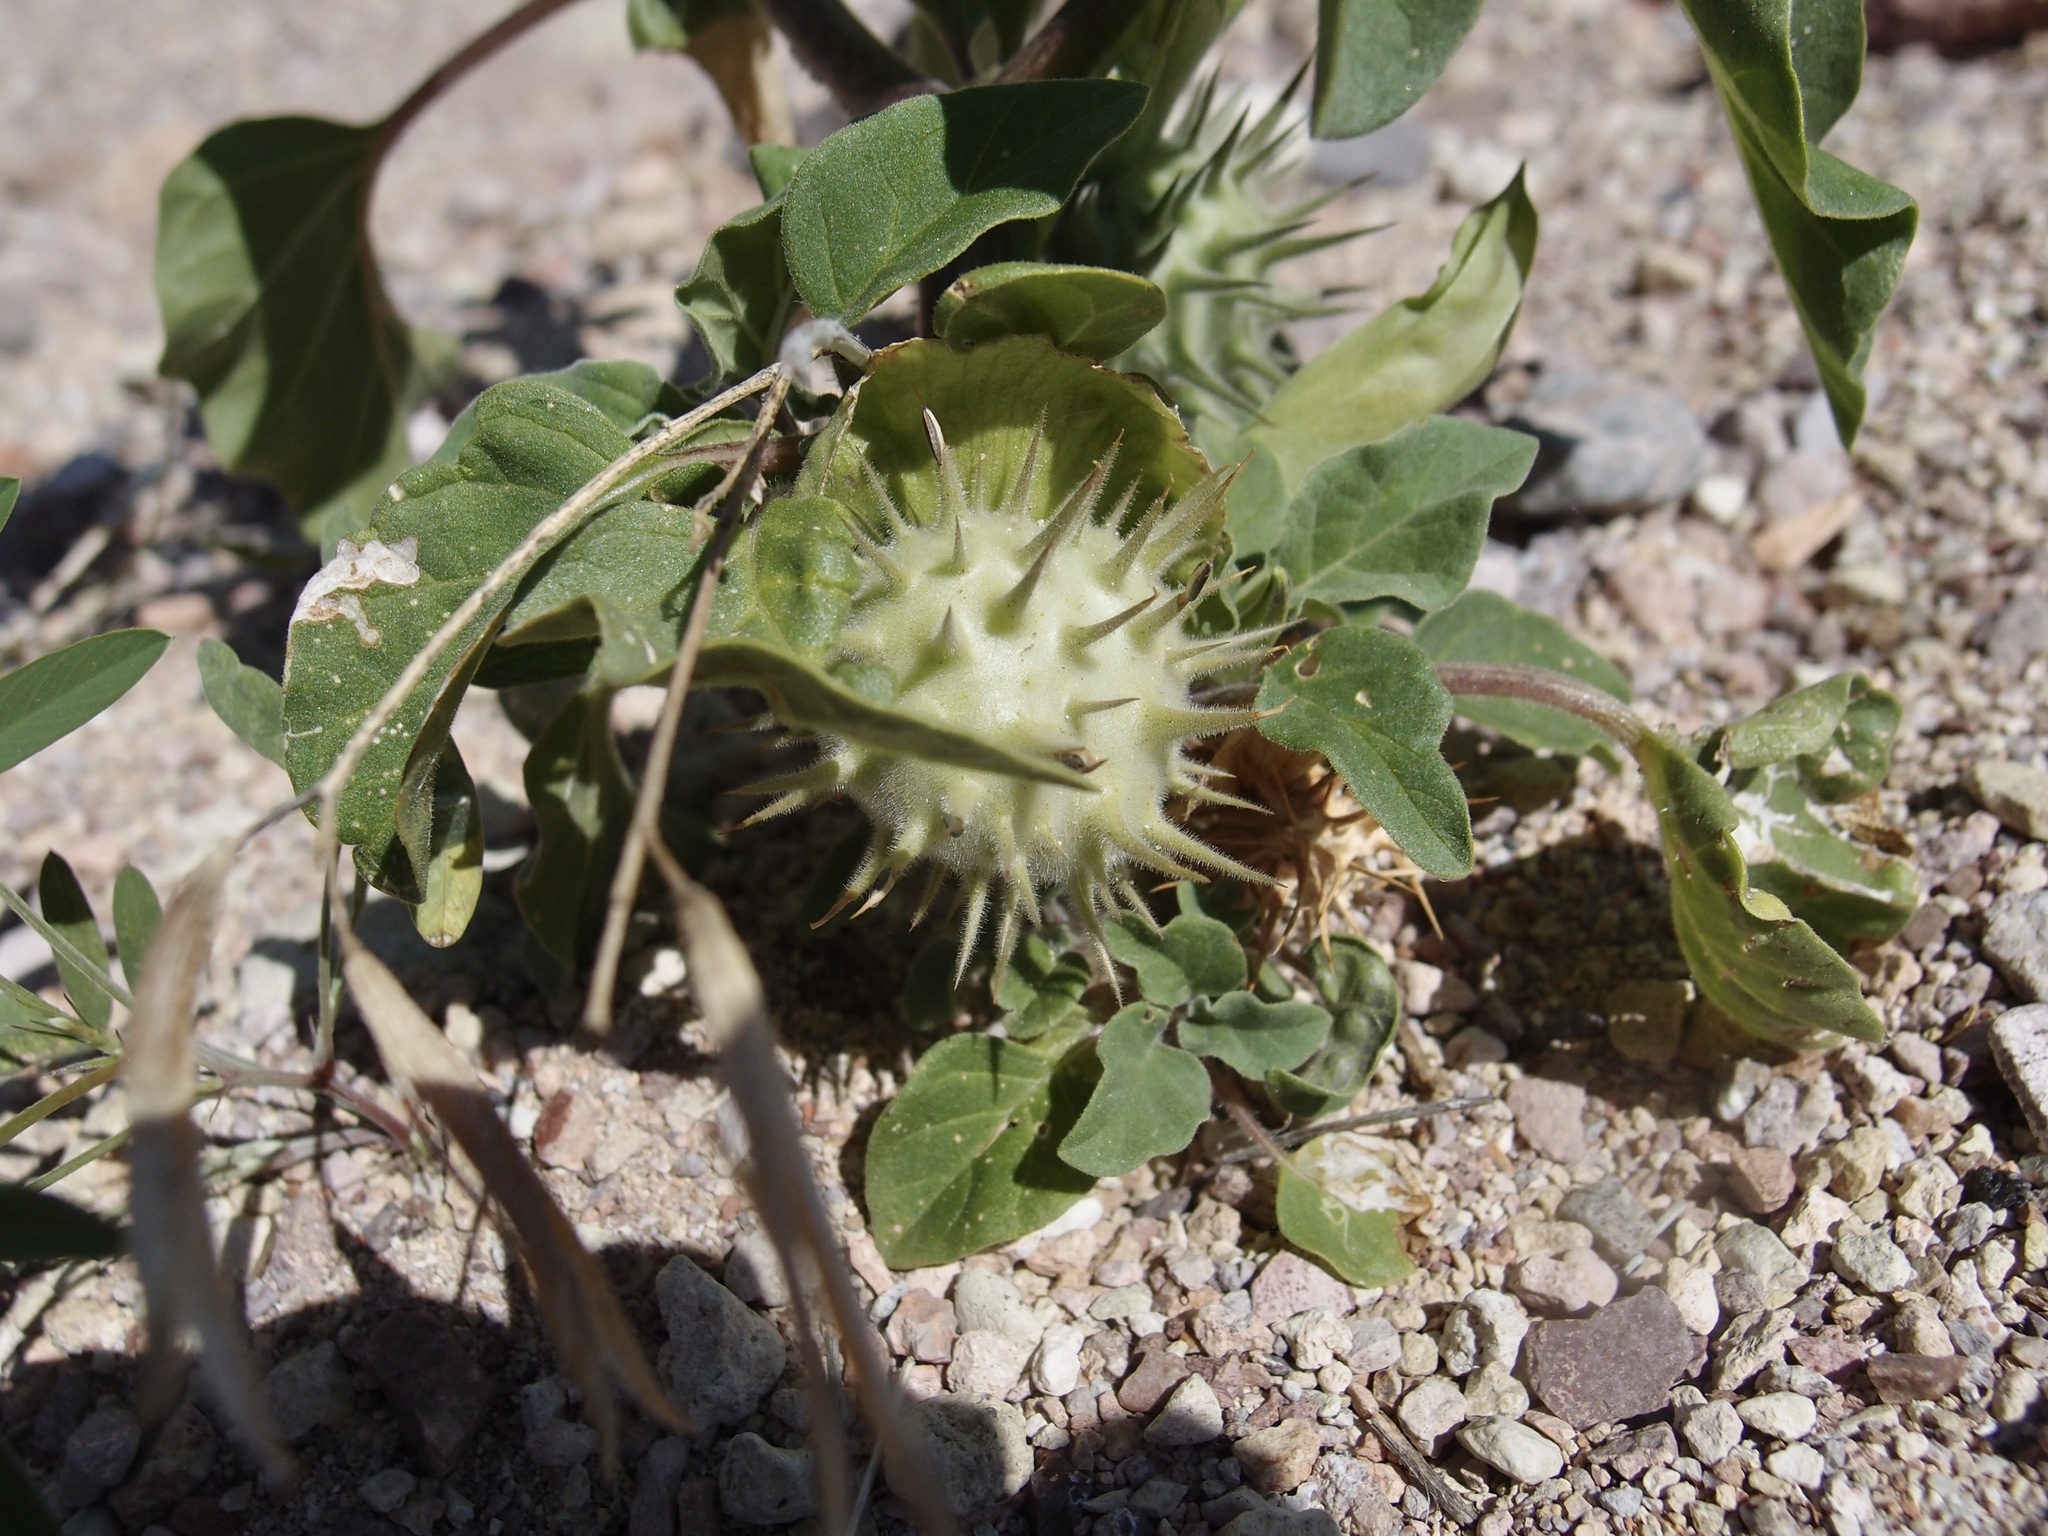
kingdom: Plantae
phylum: Tracheophyta
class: Magnoliopsida
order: Solanales
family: Solanaceae
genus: Datura
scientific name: Datura discolor
